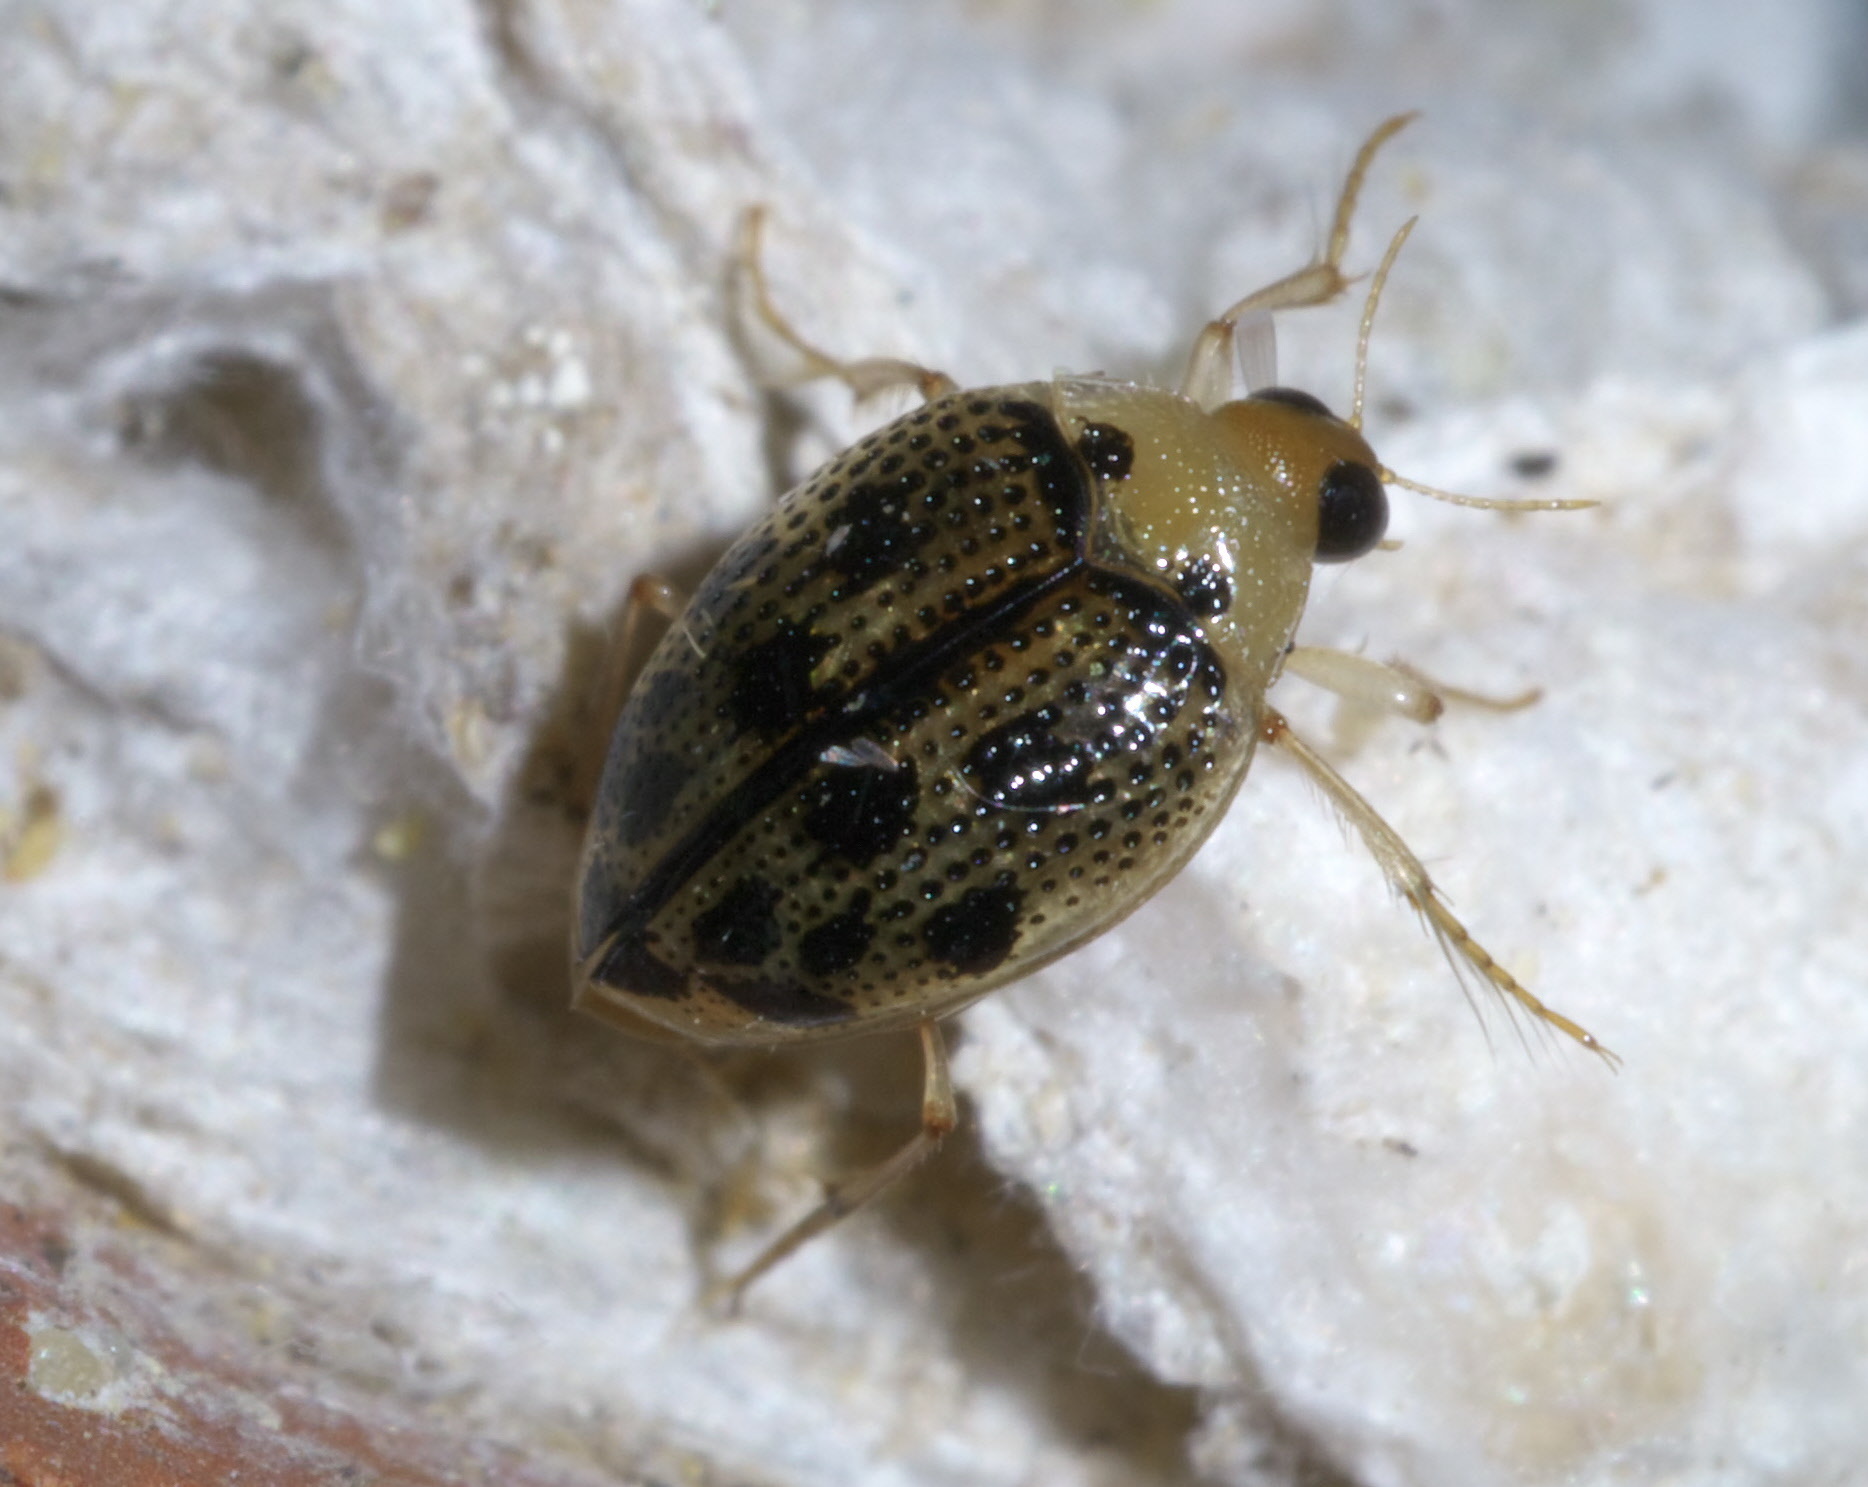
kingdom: Animalia
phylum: Arthropoda
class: Insecta
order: Coleoptera
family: Haliplidae
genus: Peltodytes
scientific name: Peltodytes litoralis
